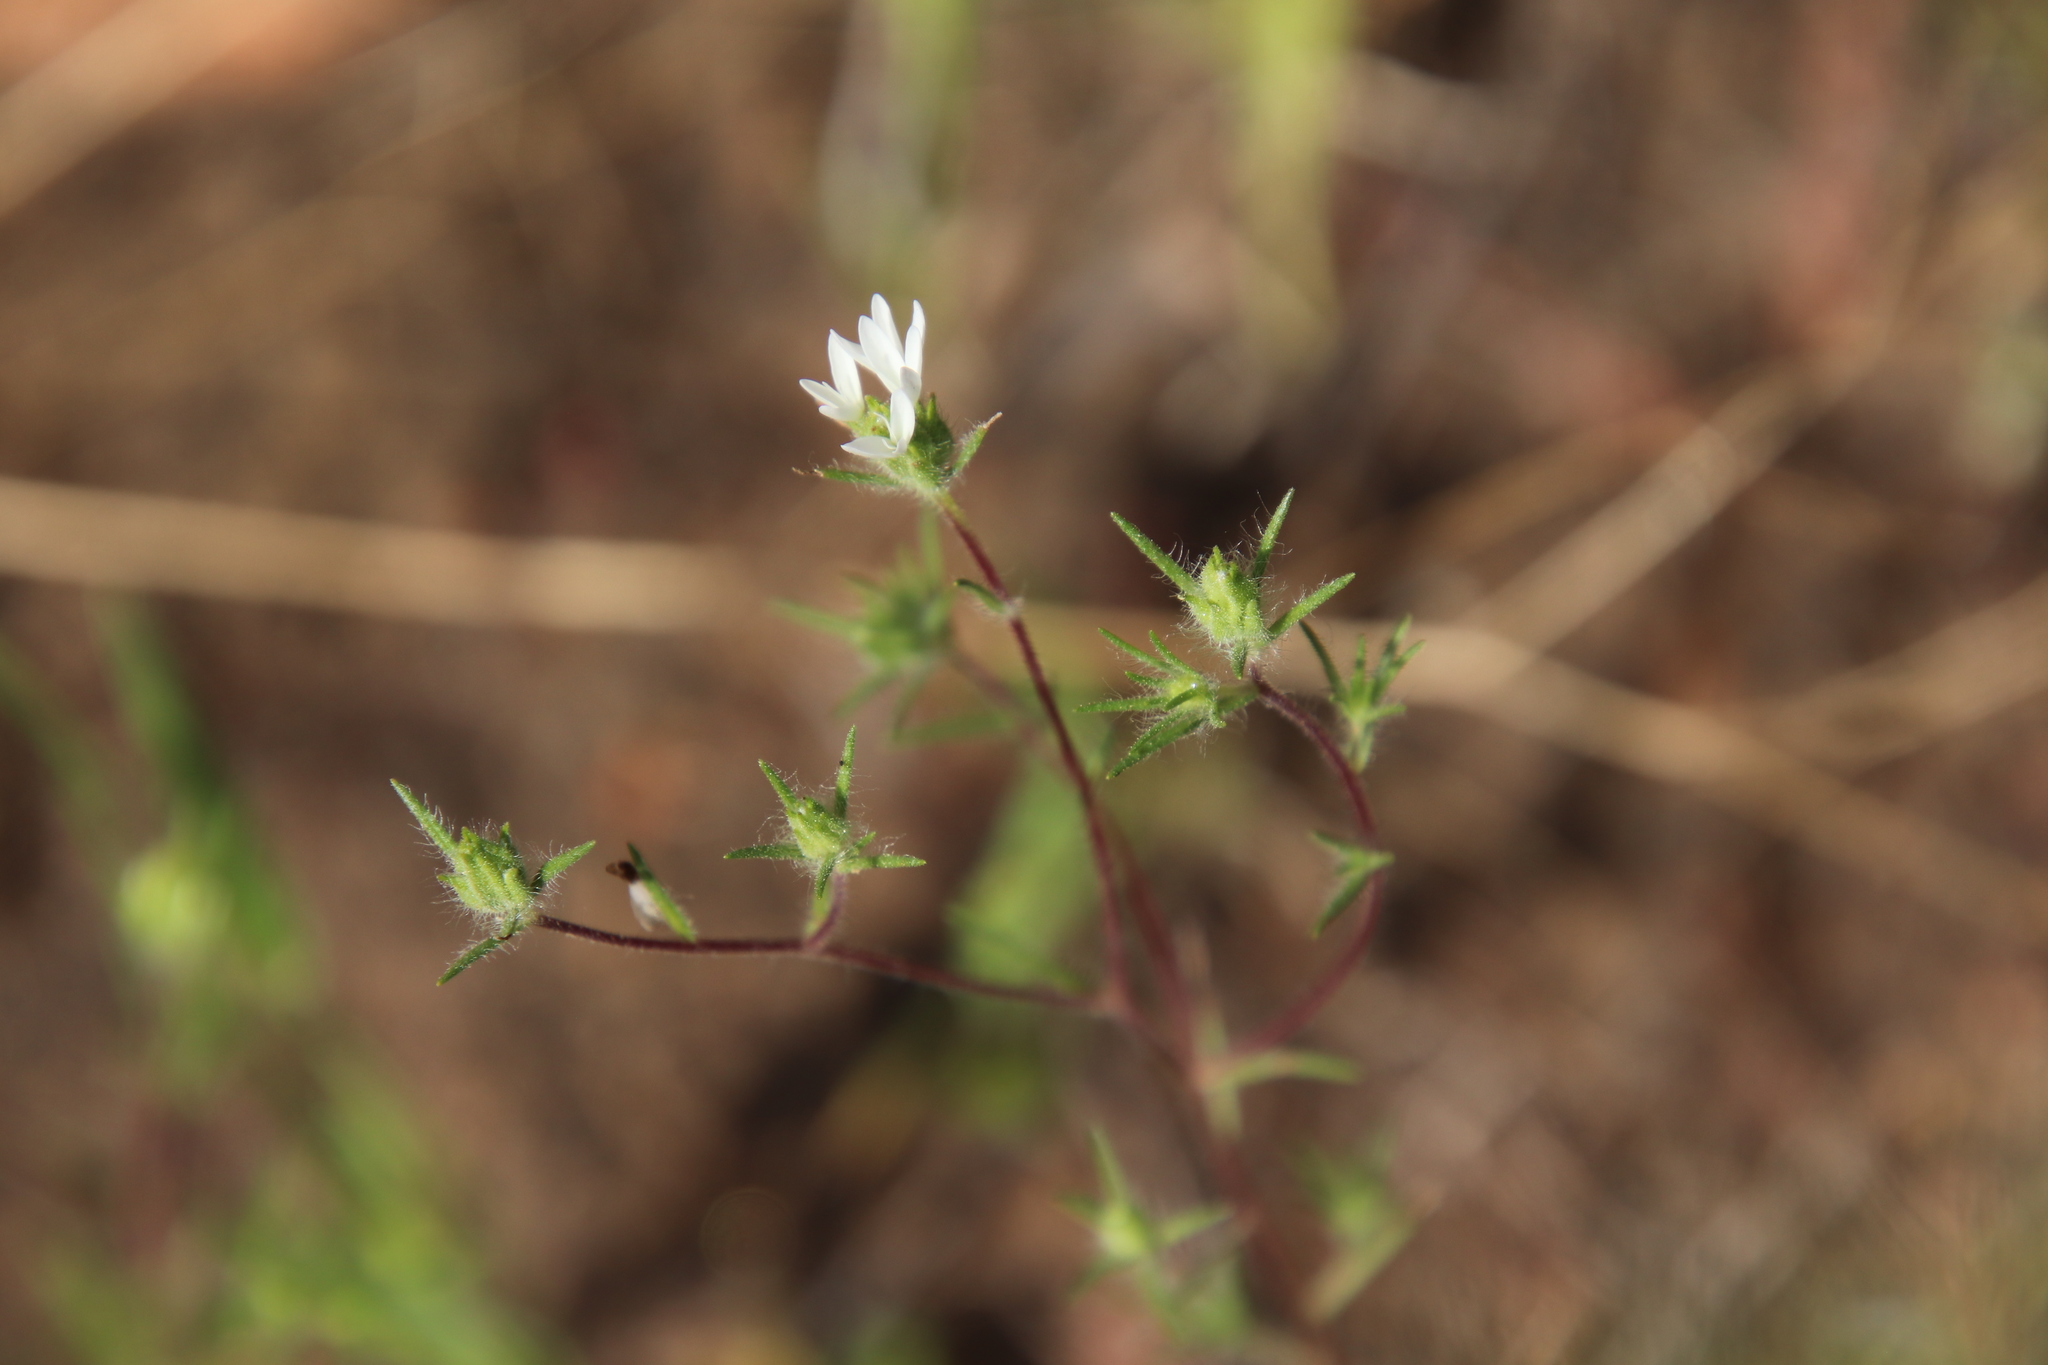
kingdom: Plantae
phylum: Tracheophyta
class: Magnoliopsida
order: Asterales
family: Asteraceae
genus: Osmadenia
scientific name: Osmadenia tenella
